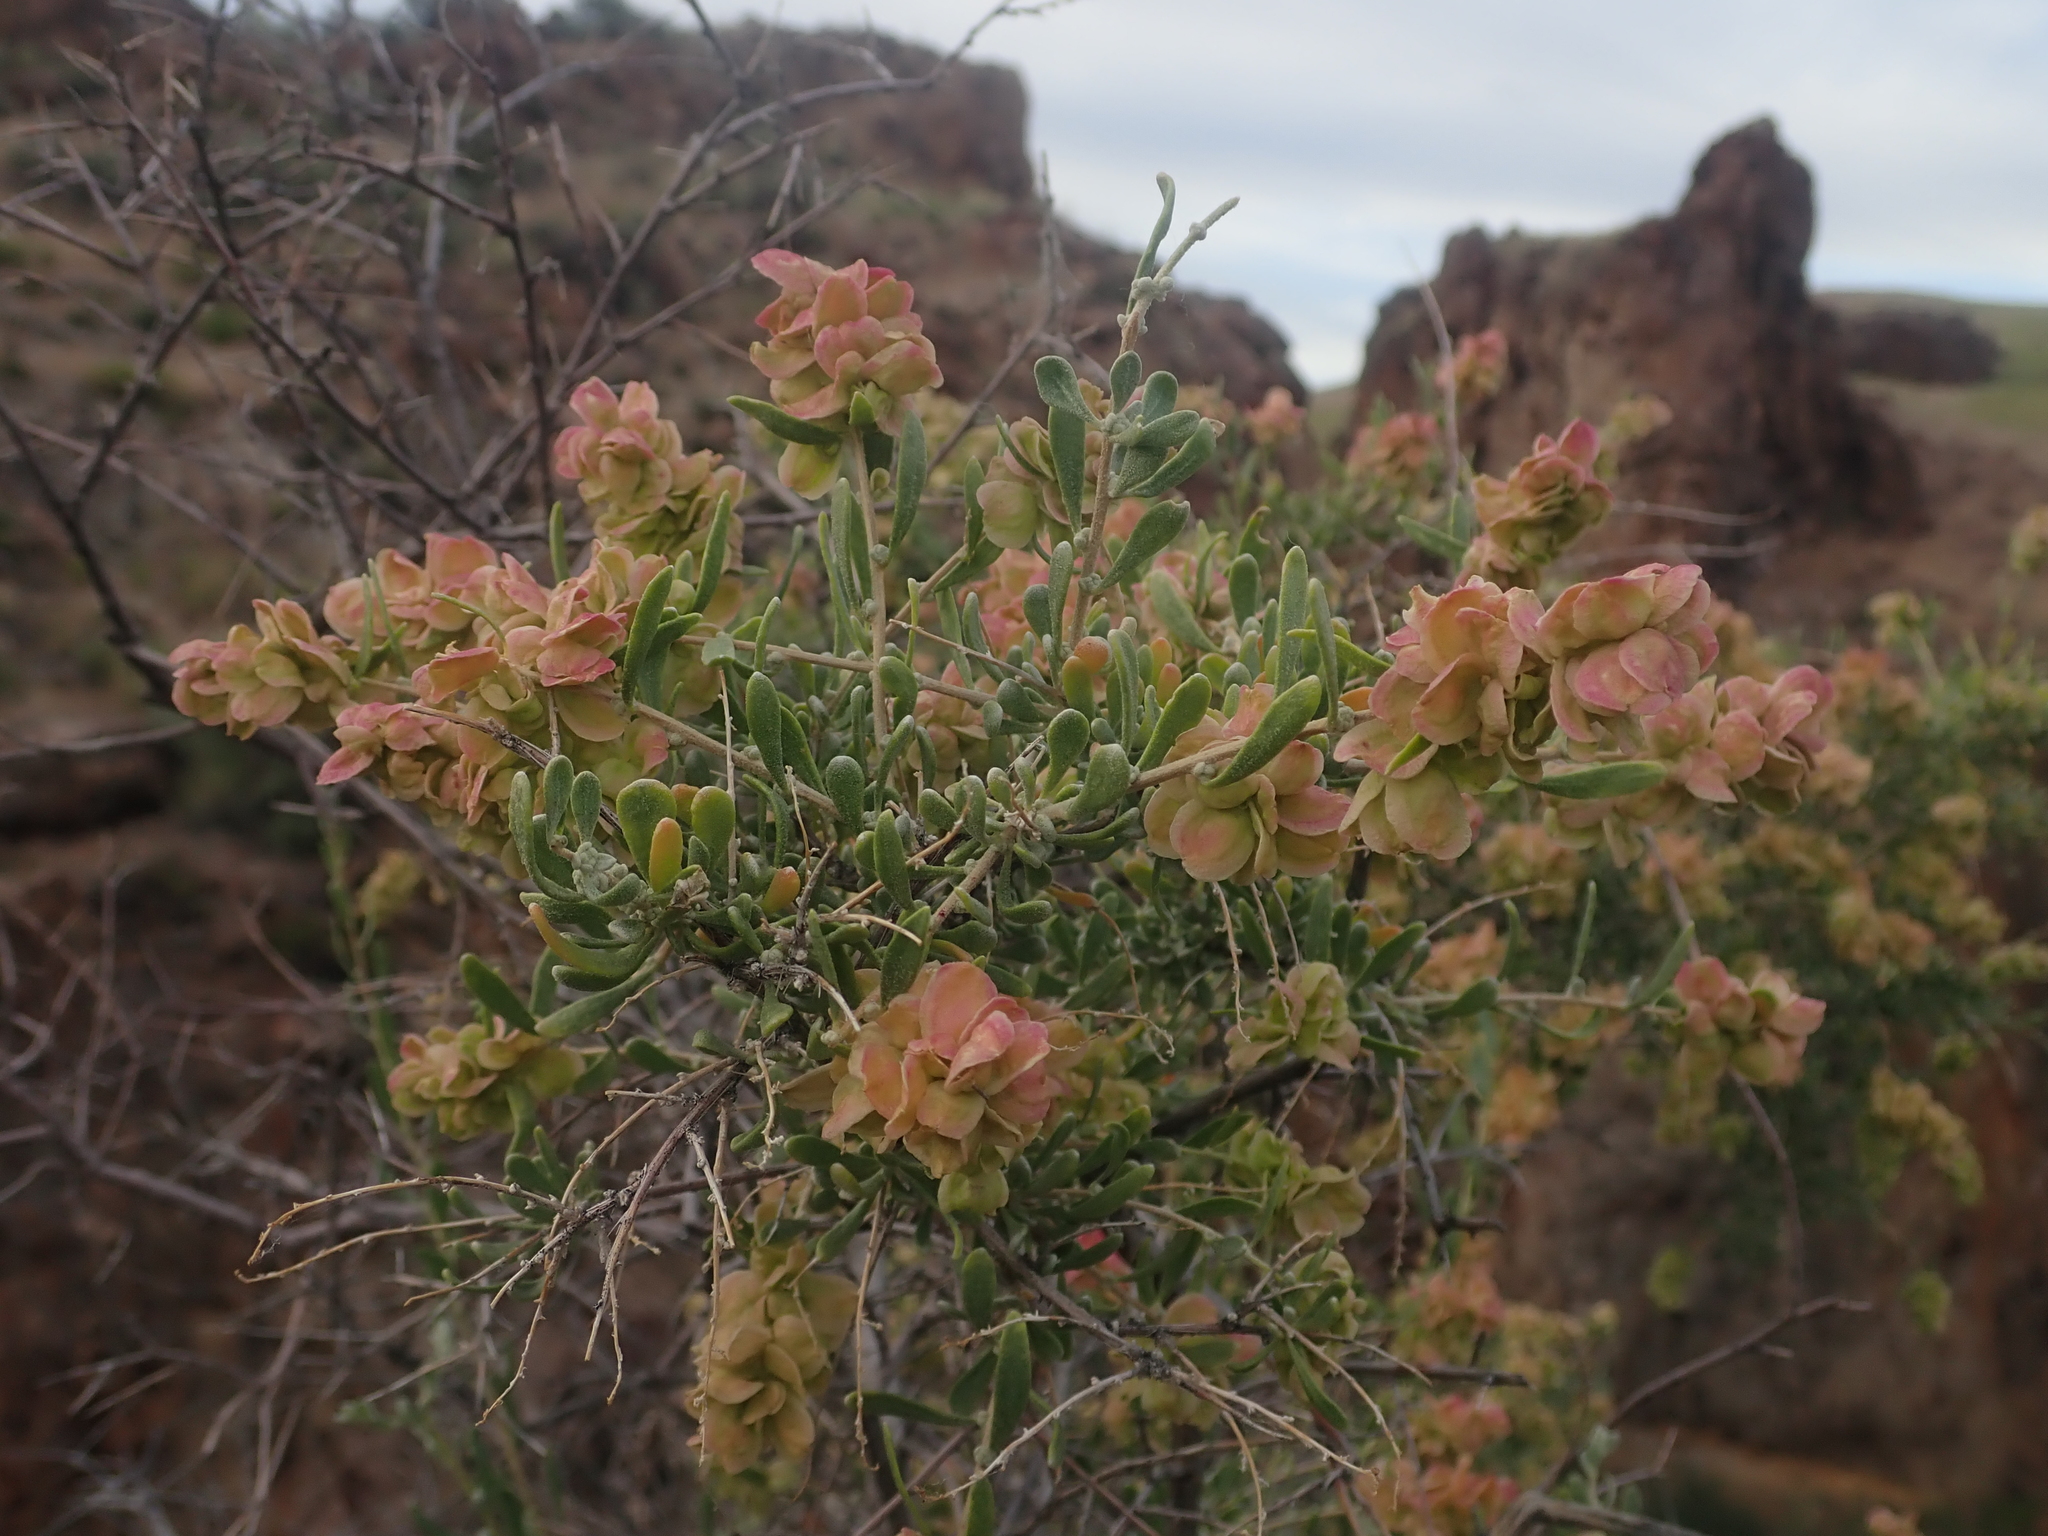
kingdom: Plantae
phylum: Tracheophyta
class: Magnoliopsida
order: Caryophyllales
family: Amaranthaceae
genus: Grayia
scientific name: Grayia spinosa
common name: Spiny hopsage
